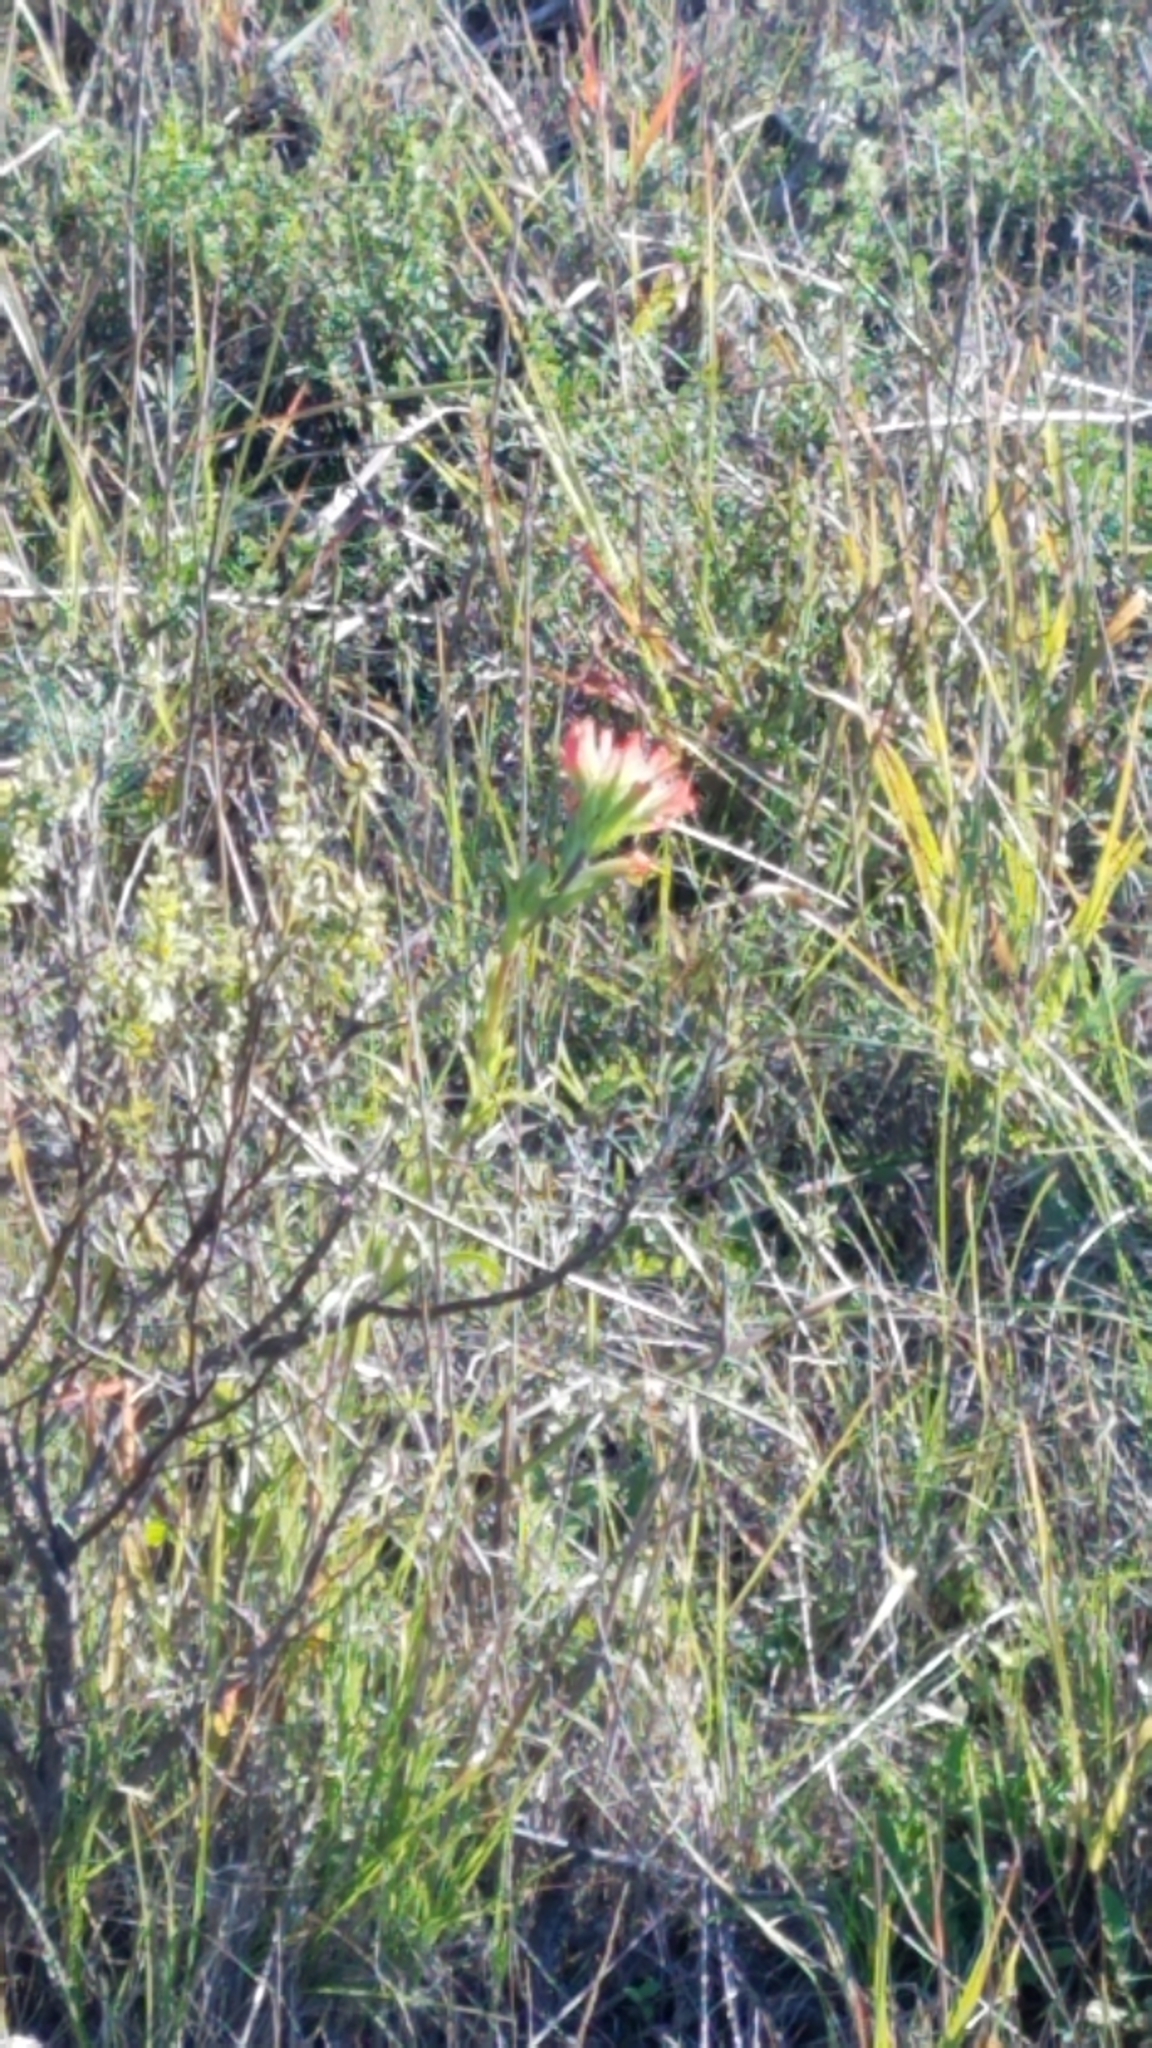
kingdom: Plantae
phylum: Tracheophyta
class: Magnoliopsida
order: Lamiales
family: Orobanchaceae
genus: Castilleja
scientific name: Castilleja affinis
